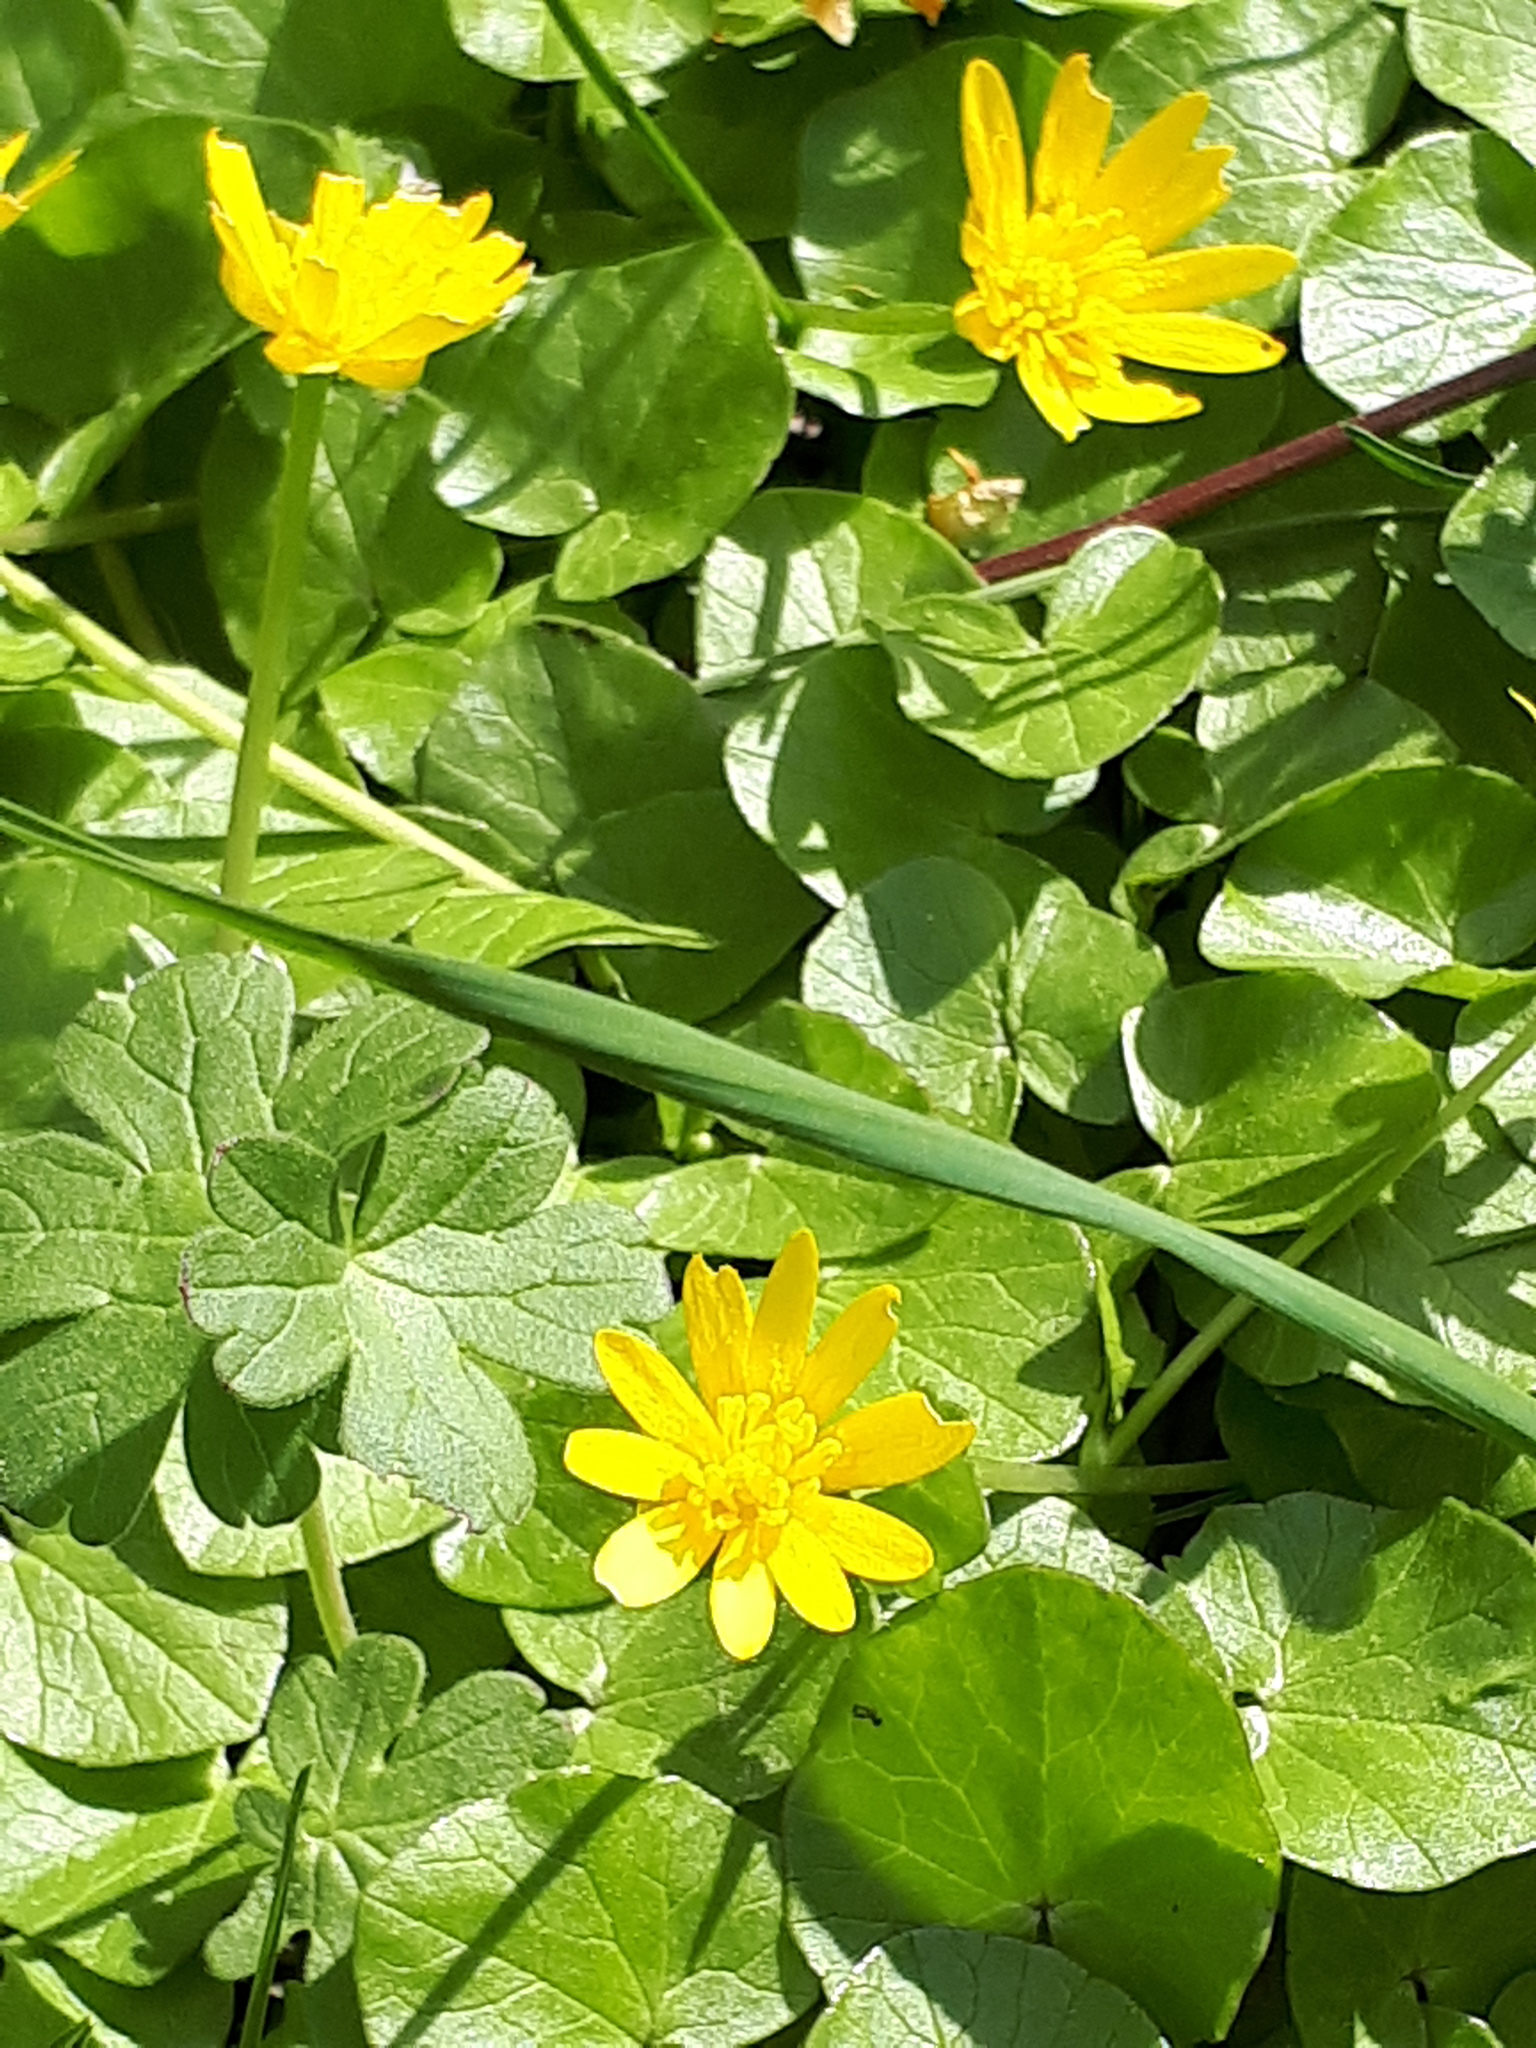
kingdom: Plantae
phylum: Tracheophyta
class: Magnoliopsida
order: Ranunculales
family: Ranunculaceae
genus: Ficaria
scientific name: Ficaria verna
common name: Lesser celandine
